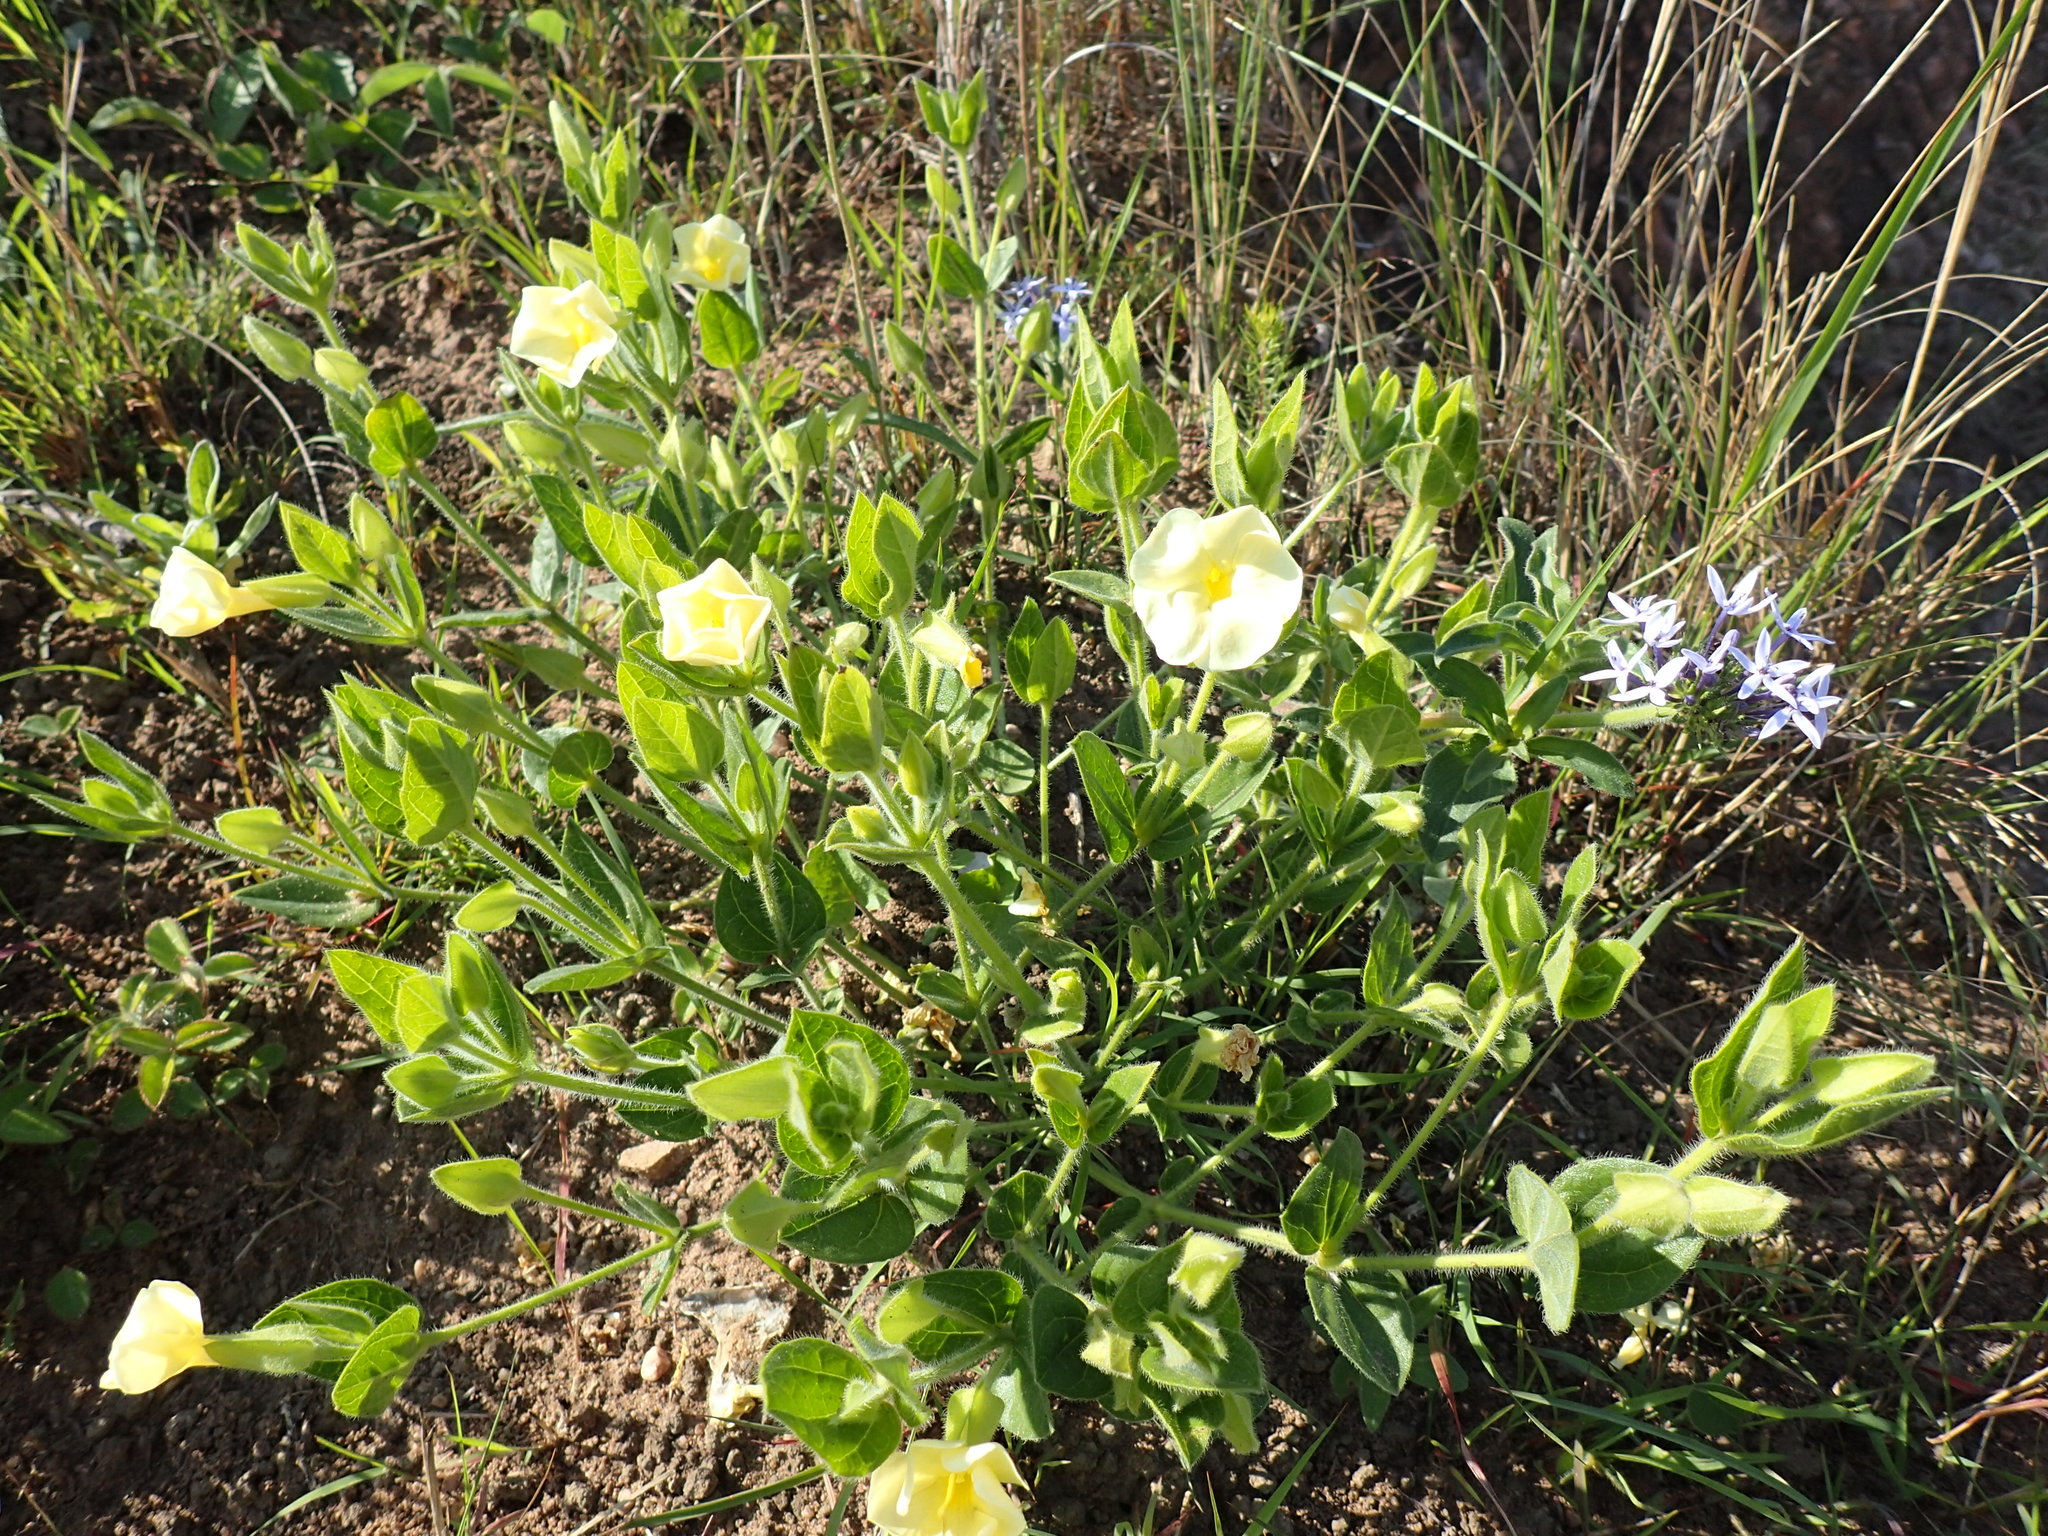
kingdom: Plantae
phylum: Tracheophyta
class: Magnoliopsida
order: Lamiales
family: Acanthaceae
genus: Thunbergia
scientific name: Thunbergia atriplicifolia
